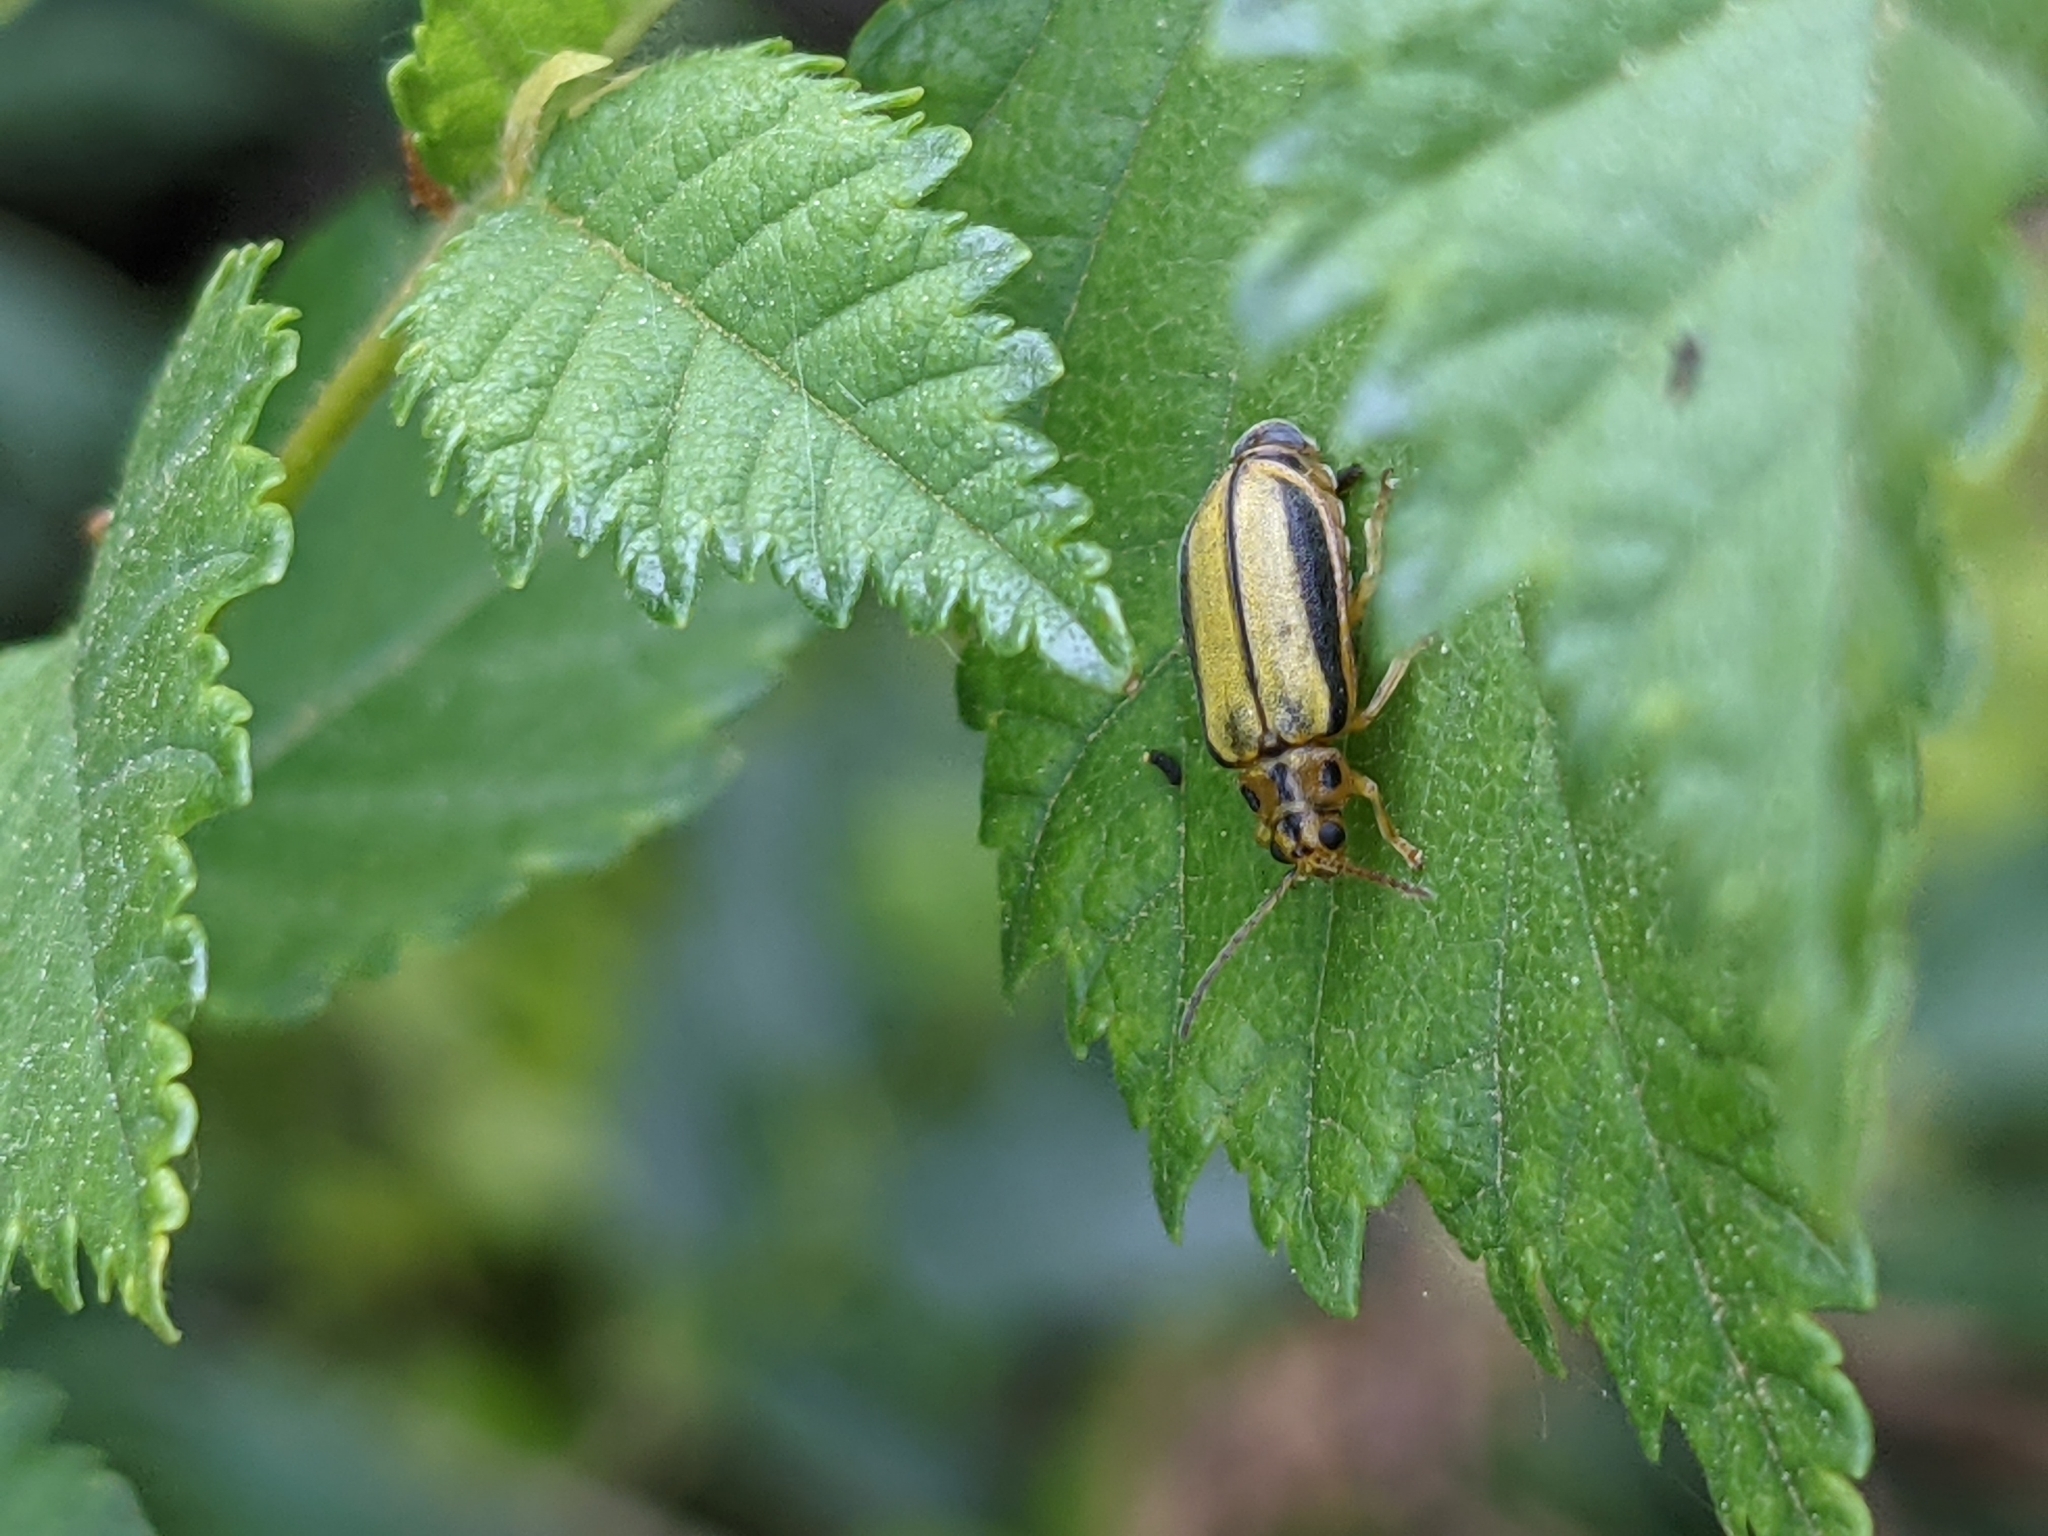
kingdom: Animalia
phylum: Arthropoda
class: Insecta
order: Coleoptera
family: Chrysomelidae
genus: Xanthogaleruca
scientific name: Xanthogaleruca luteola
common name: Elm leaf beetle
